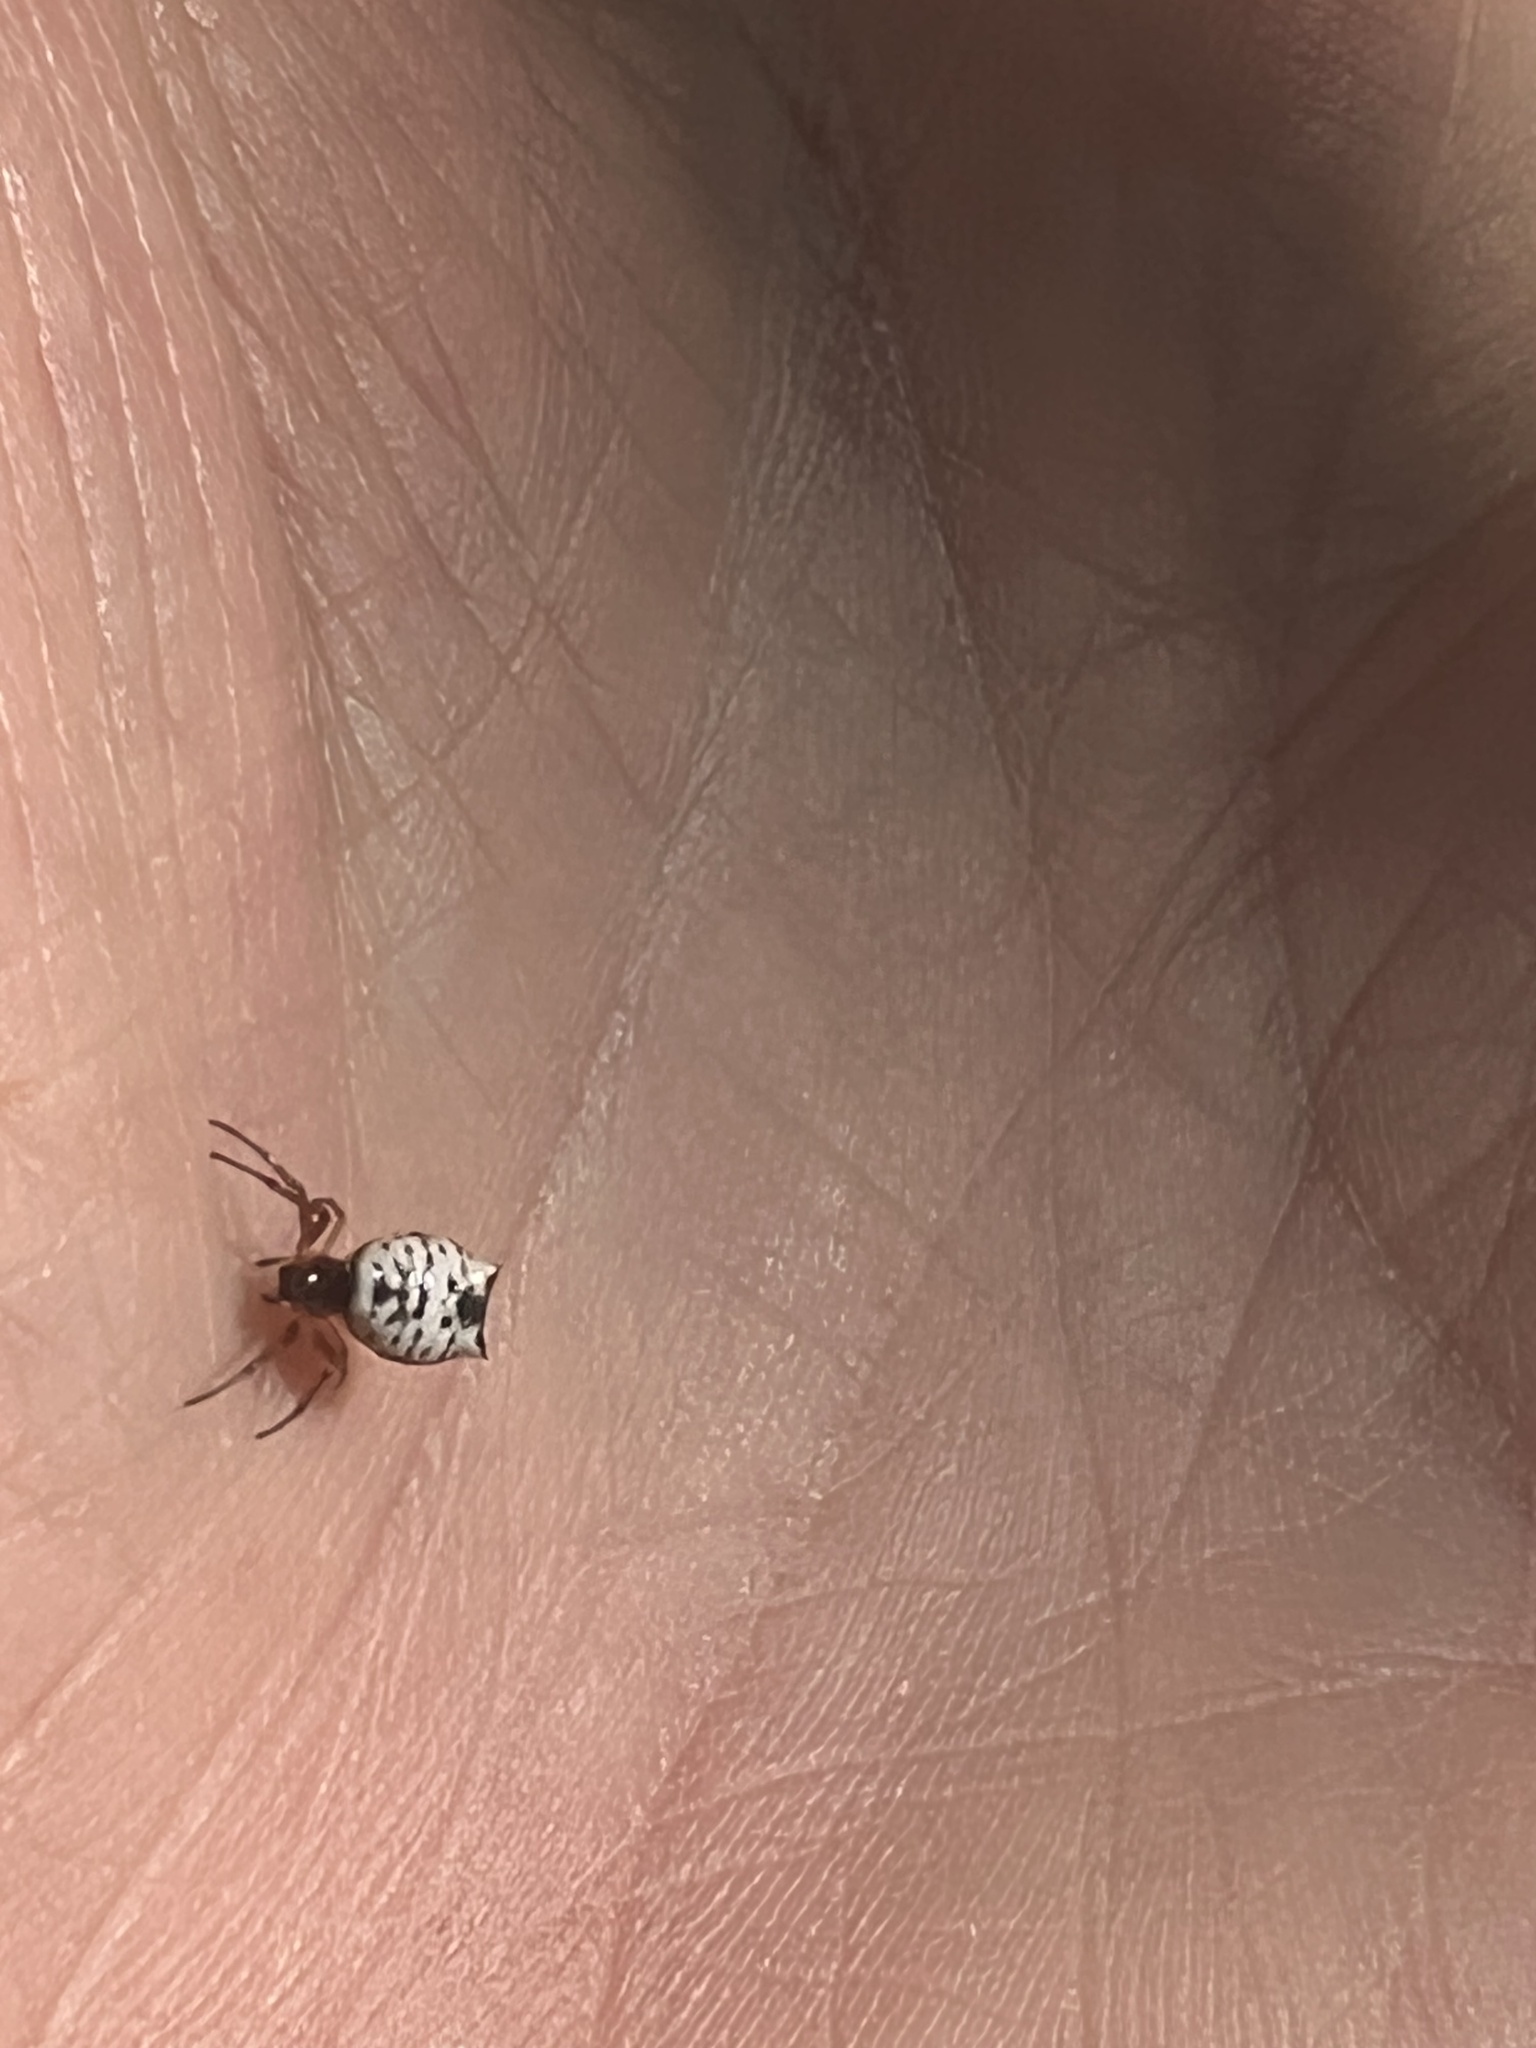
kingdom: Animalia
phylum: Arthropoda
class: Arachnida
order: Araneae
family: Araneidae
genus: Micrathena
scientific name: Micrathena mitrata
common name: Orb weavers
